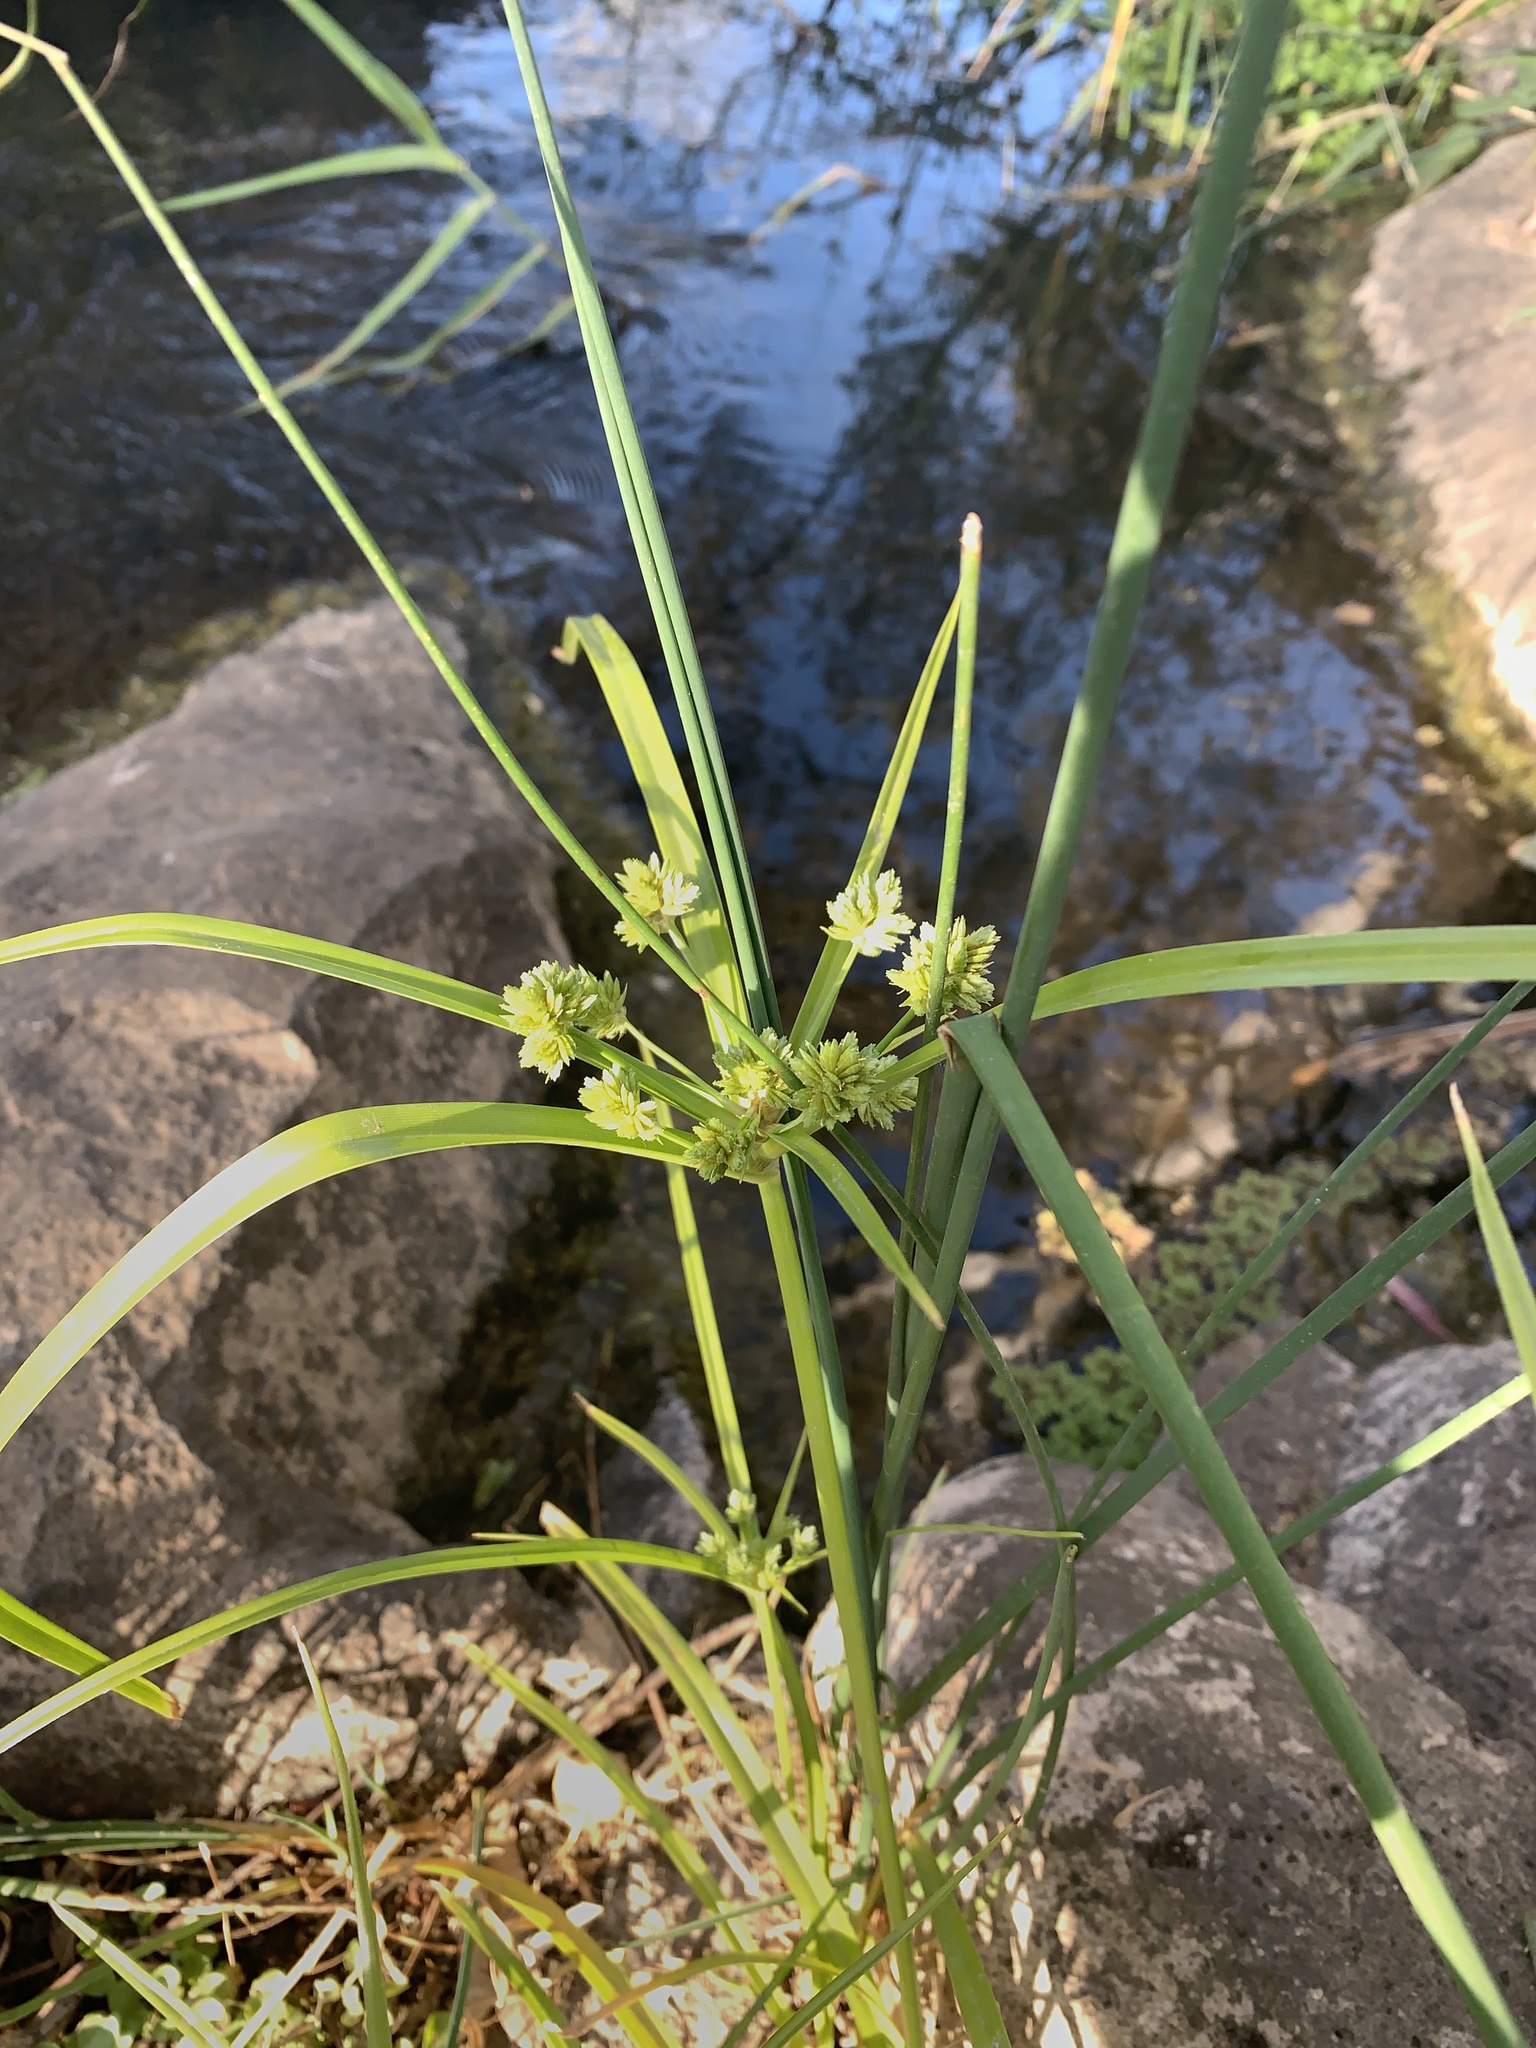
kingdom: Plantae
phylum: Tracheophyta
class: Liliopsida
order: Poales
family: Cyperaceae
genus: Cyperus
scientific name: Cyperus eragrostis
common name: Tall flatsedge
